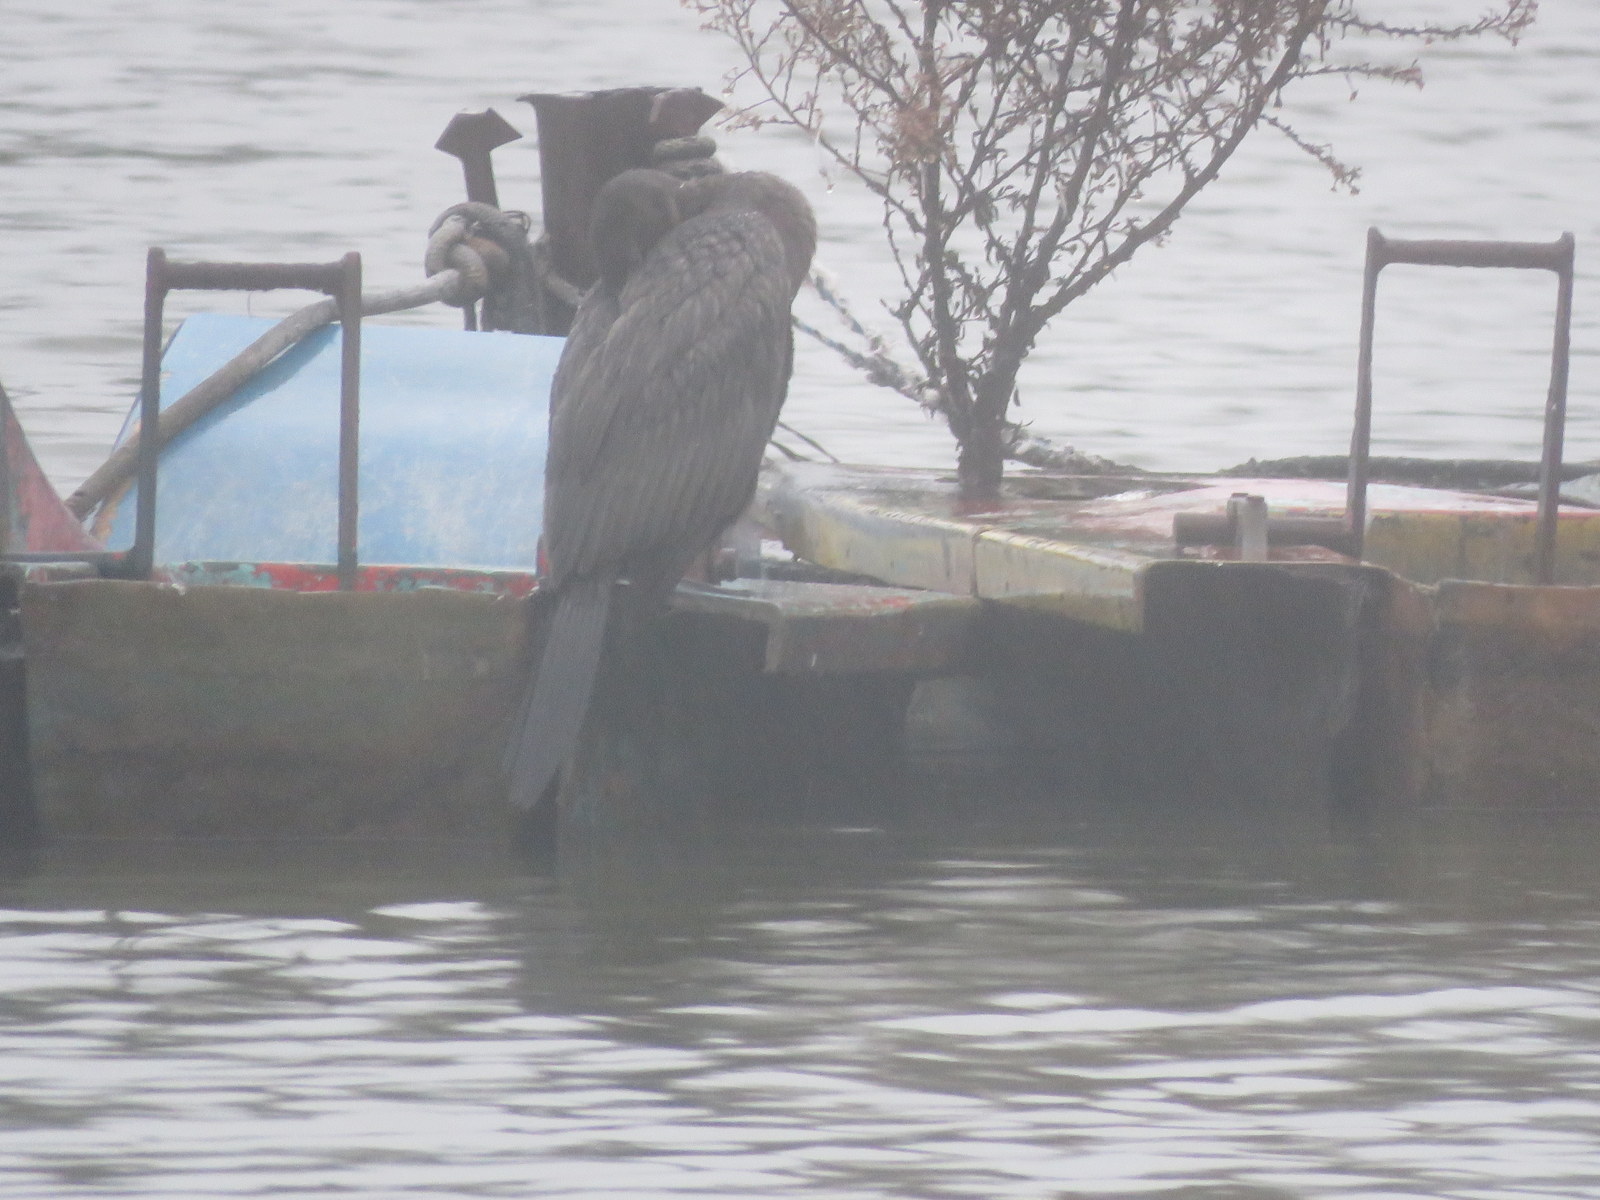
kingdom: Animalia
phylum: Chordata
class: Aves
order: Suliformes
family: Phalacrocoracidae
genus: Phalacrocorax
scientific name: Phalacrocorax brasilianus
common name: Neotropic cormorant
